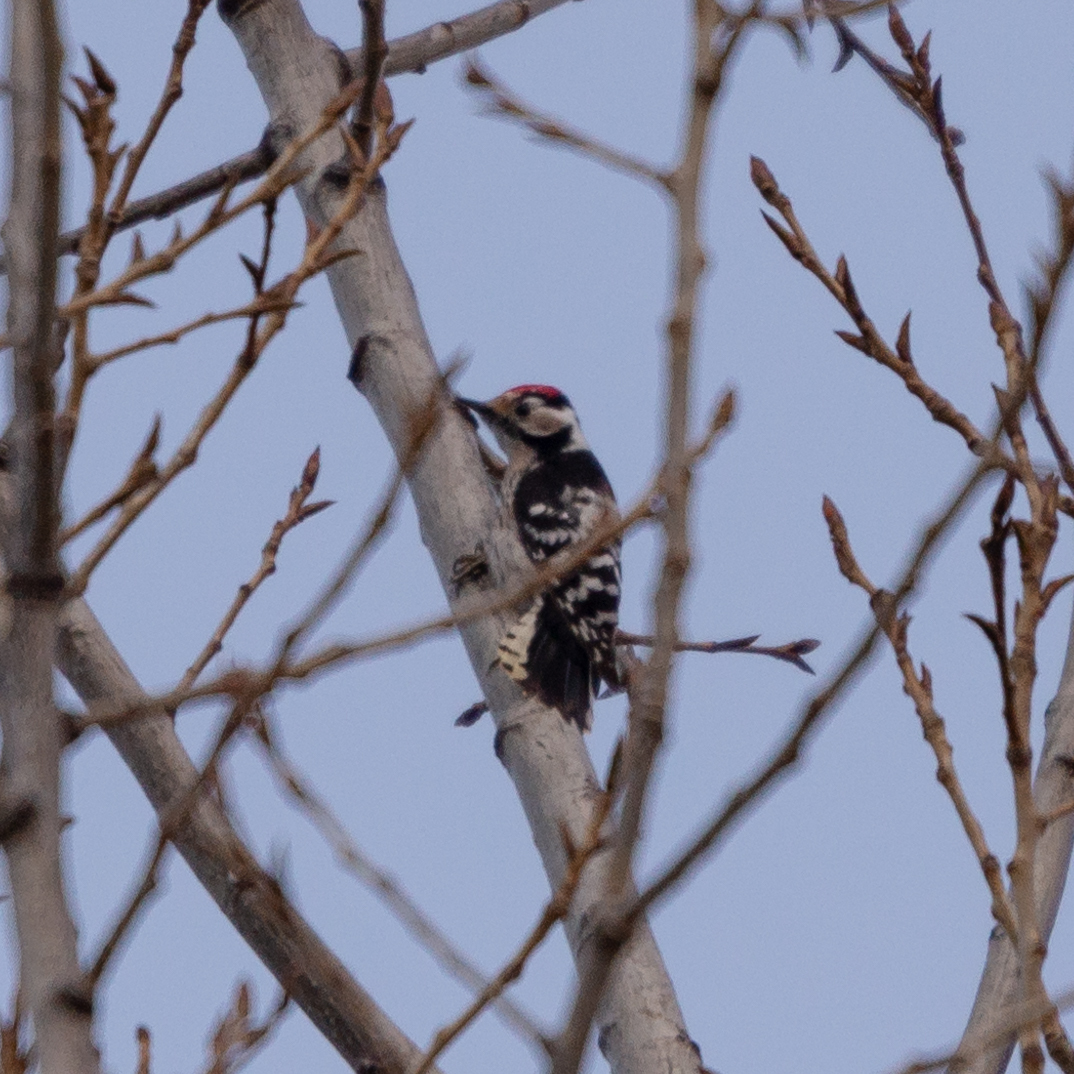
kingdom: Animalia
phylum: Chordata
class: Aves
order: Piciformes
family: Picidae
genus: Dryobates
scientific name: Dryobates minor
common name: Lesser spotted woodpecker
